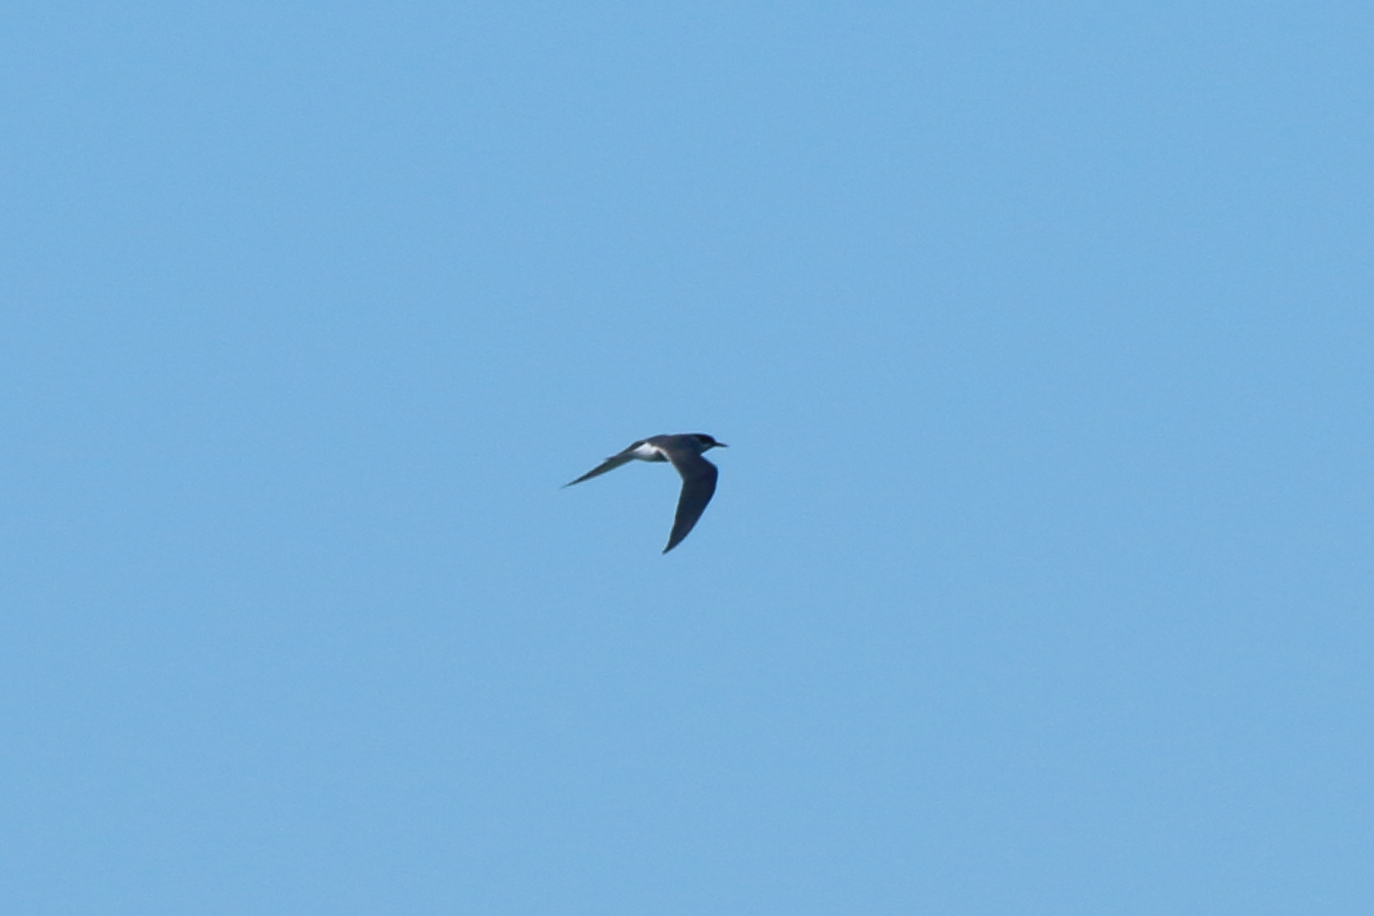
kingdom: Animalia
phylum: Chordata
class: Aves
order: Charadriiformes
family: Laridae
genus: Chlidonias
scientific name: Chlidonias albostriatus
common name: Black-fronted tern
